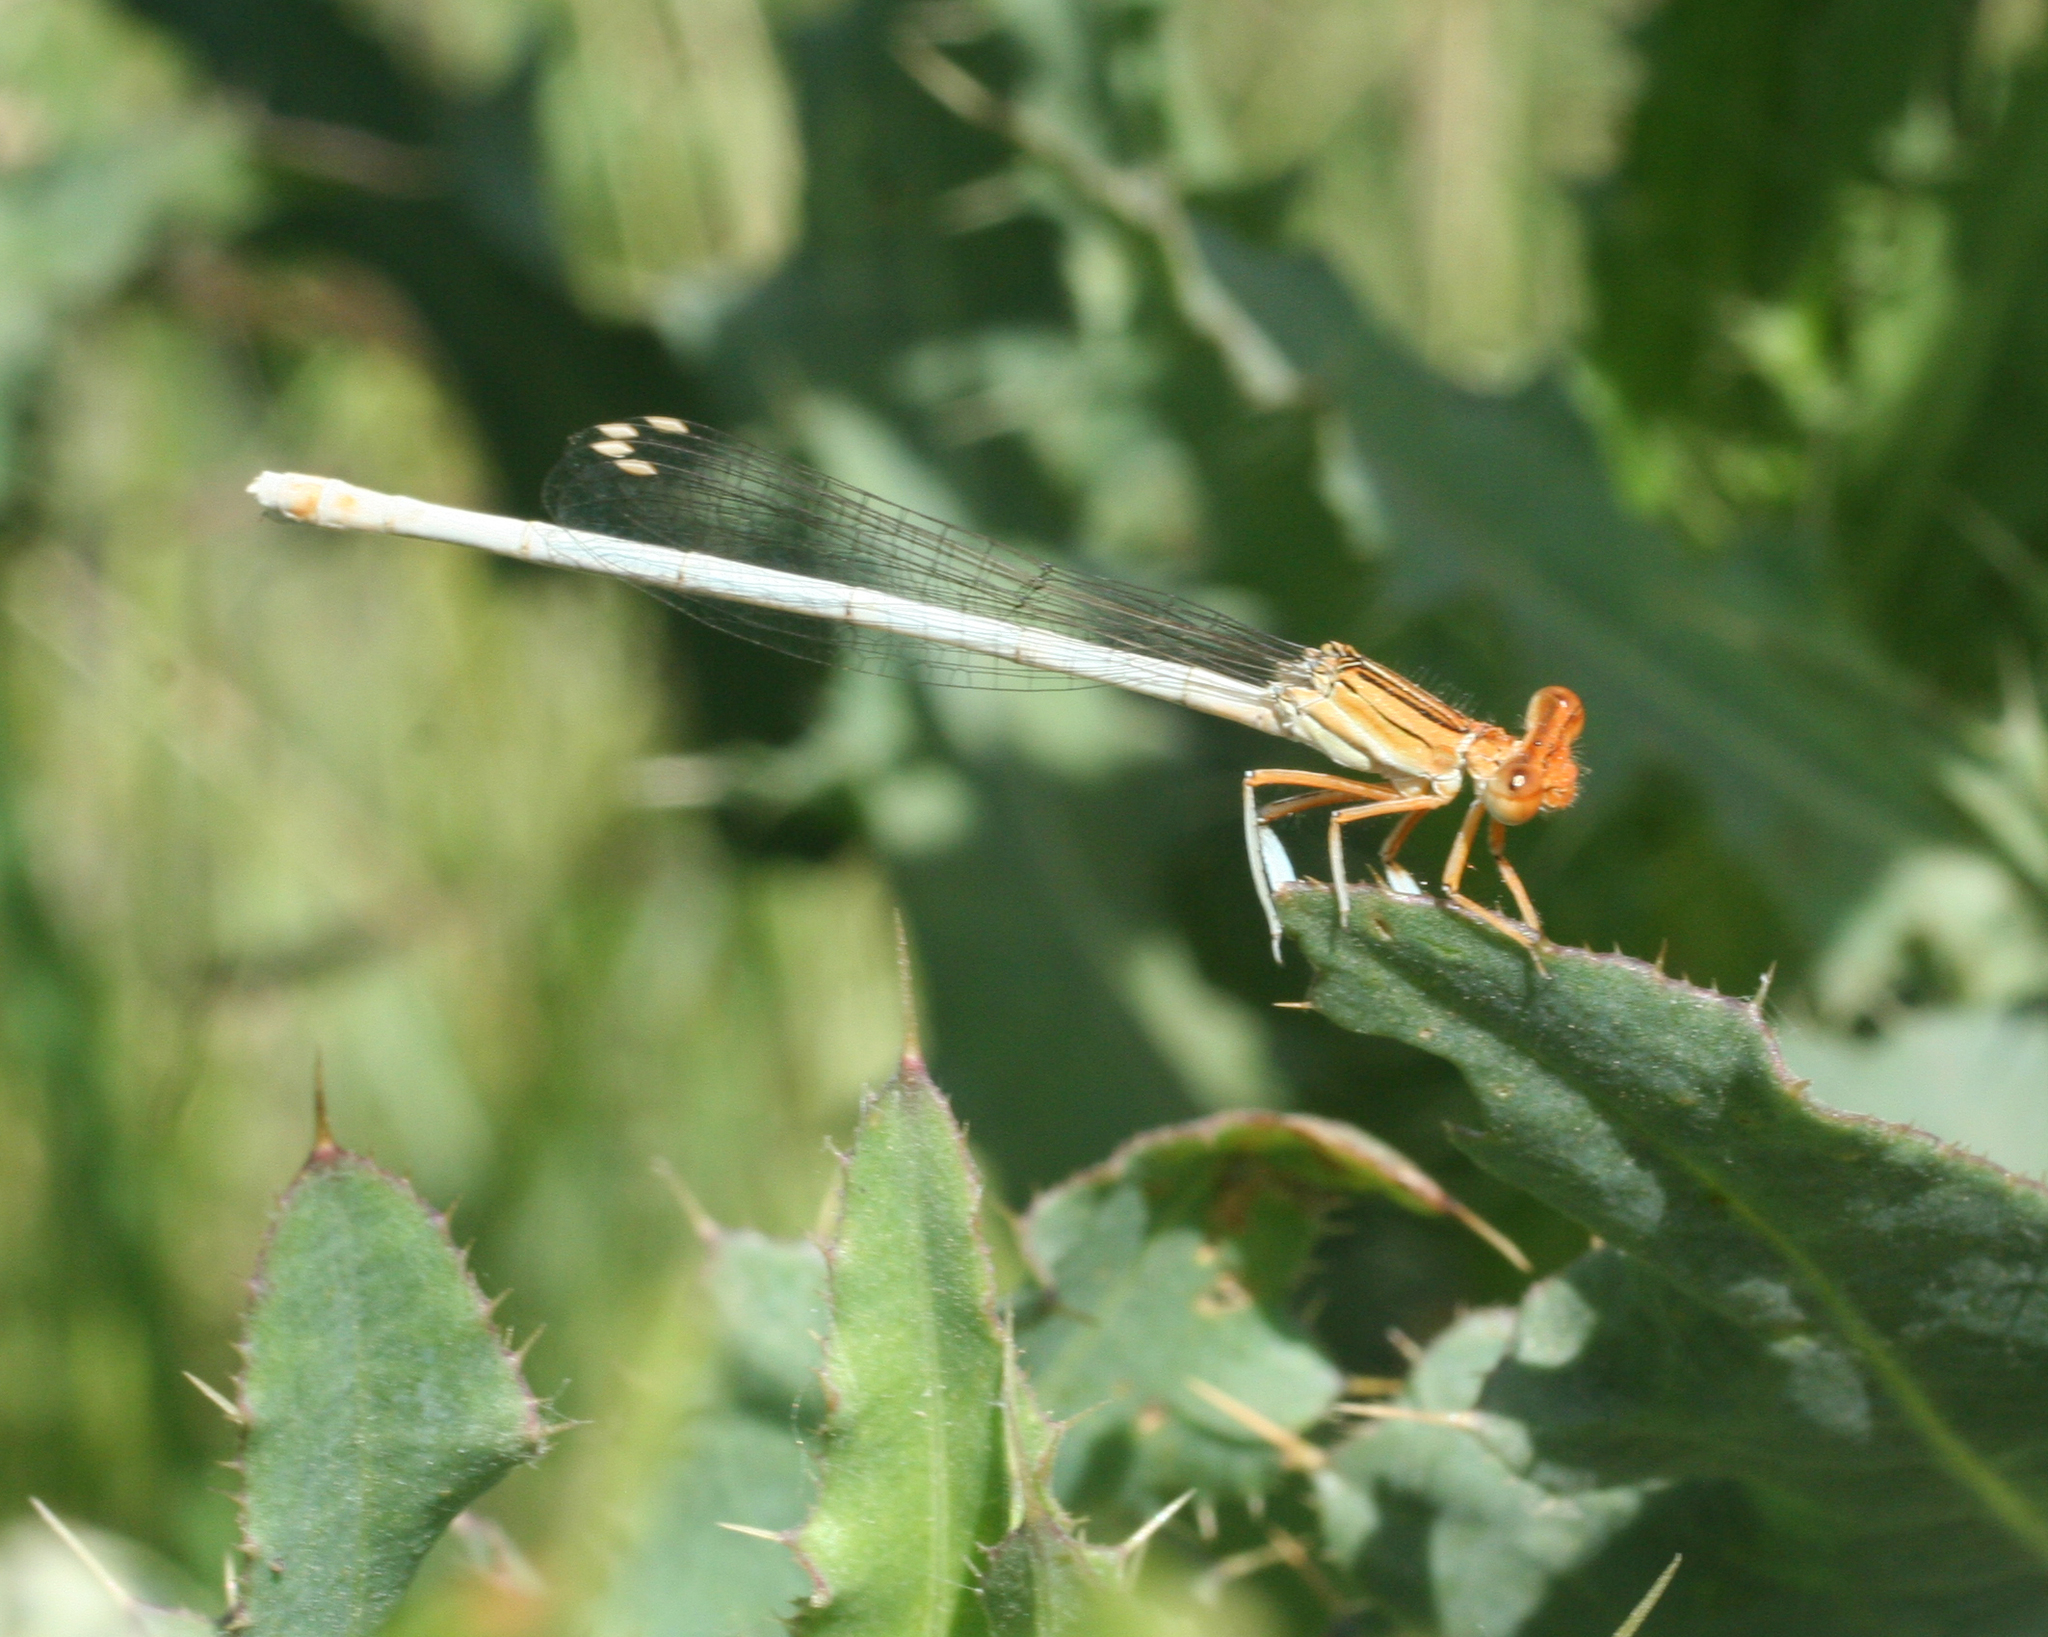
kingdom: Animalia
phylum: Arthropoda
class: Insecta
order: Odonata
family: Platycnemididae
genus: Platycnemis
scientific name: Platycnemis dealbata
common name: Ivory featherleg
